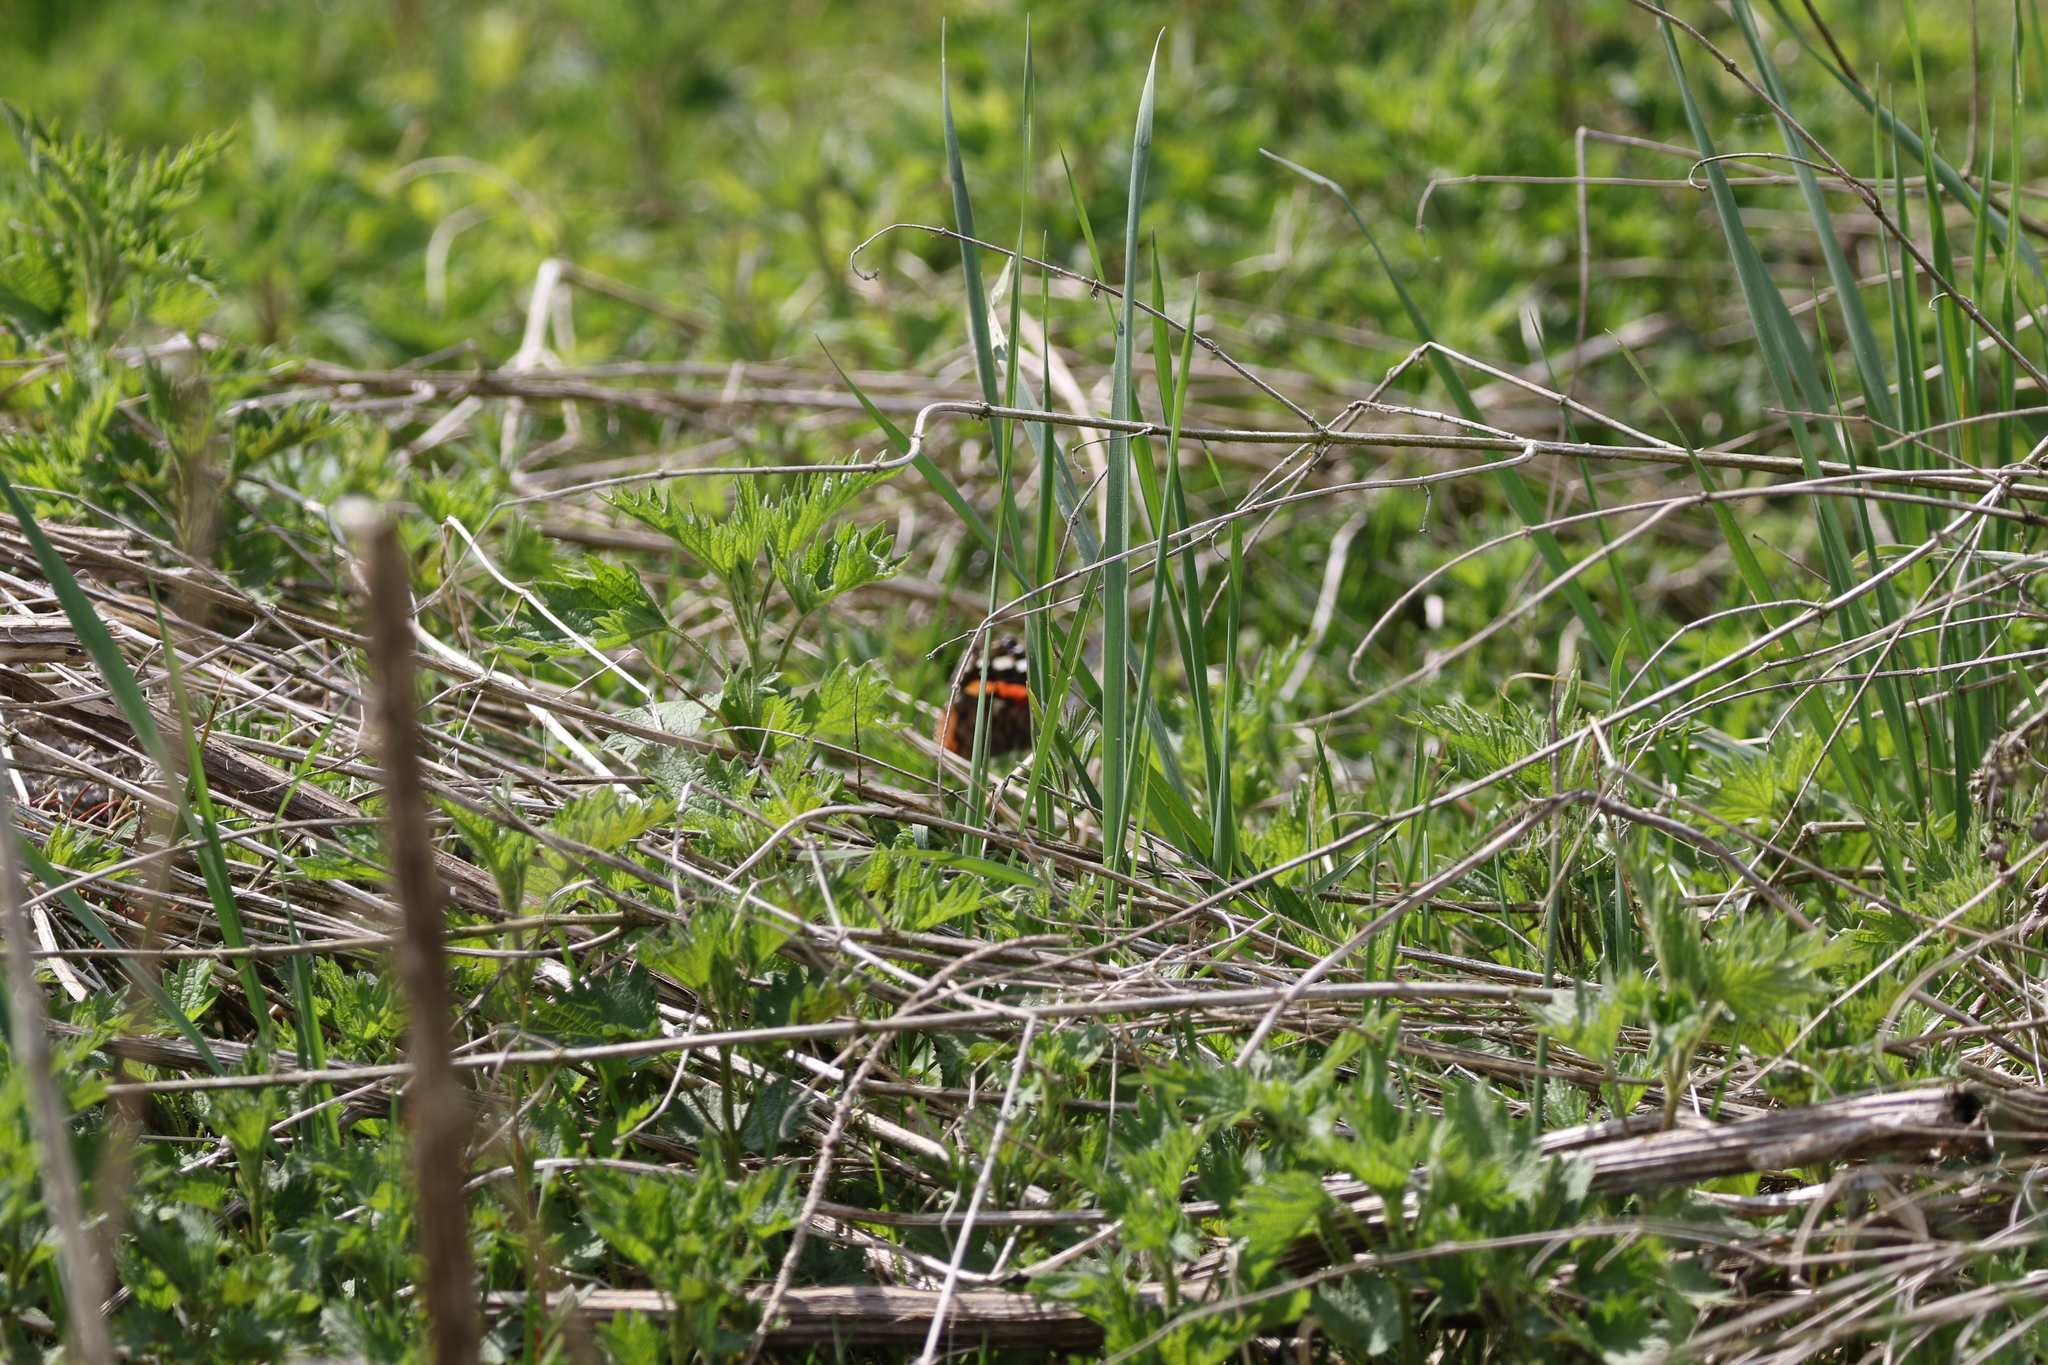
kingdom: Animalia
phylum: Arthropoda
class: Insecta
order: Lepidoptera
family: Nymphalidae
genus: Vanessa
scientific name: Vanessa atalanta
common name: Red admiral
